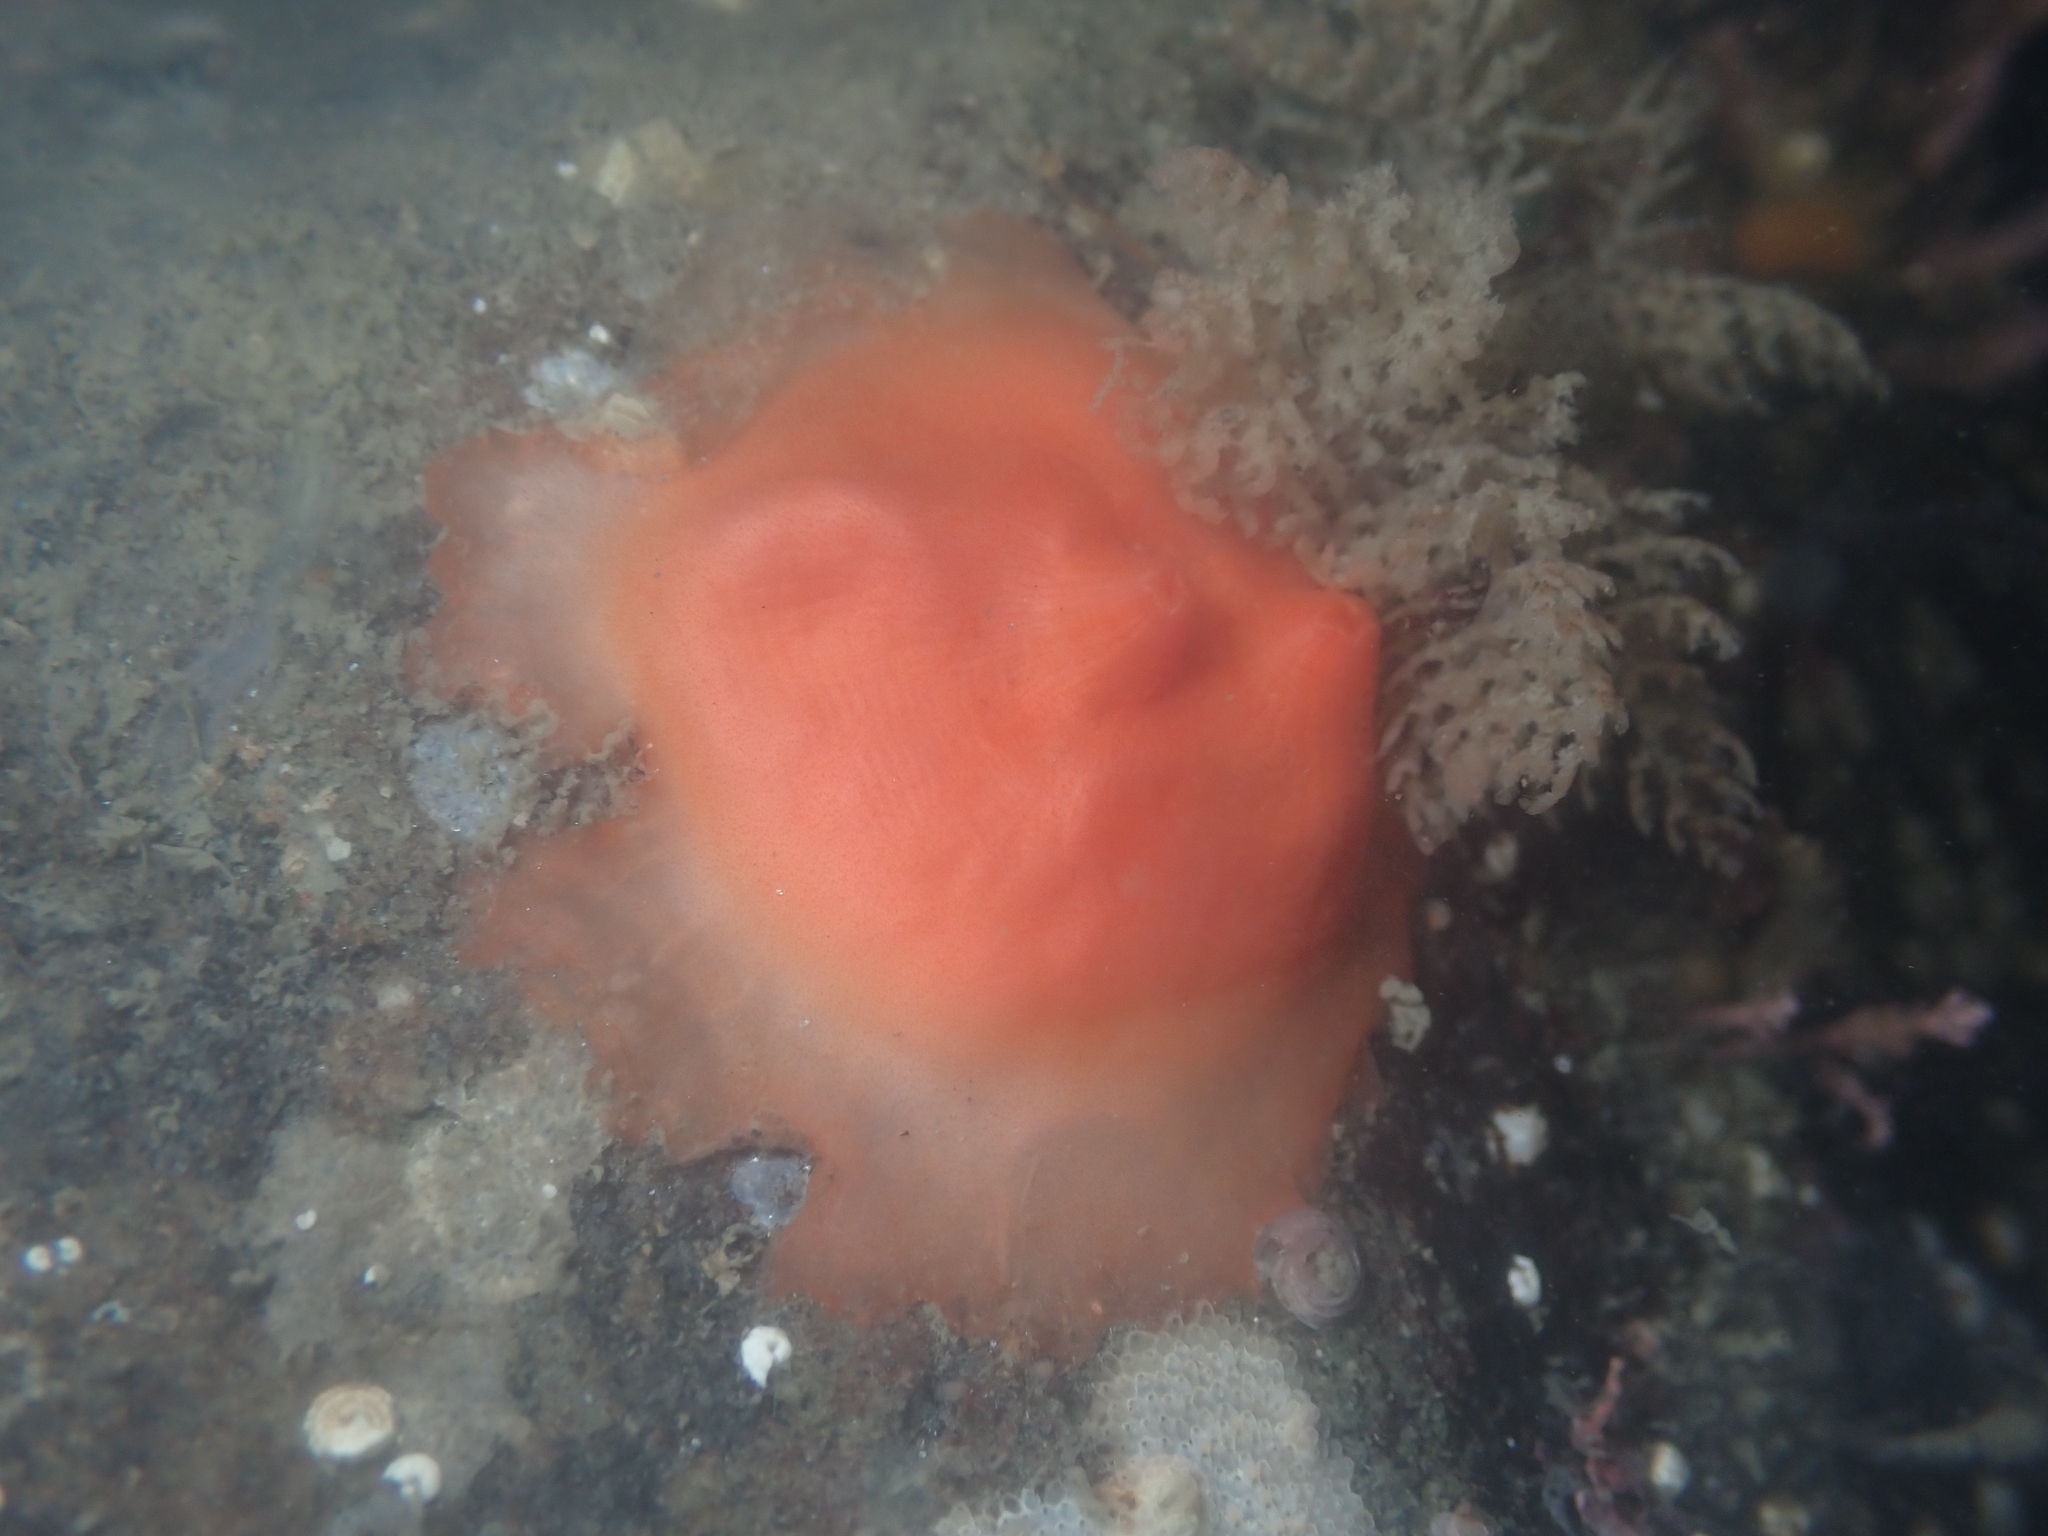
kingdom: Animalia
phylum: Chordata
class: Ascidiacea
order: Stolidobranchia
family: Styelidae
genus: Cnemidocarpa
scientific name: Cnemidocarpa finmarkiensis
